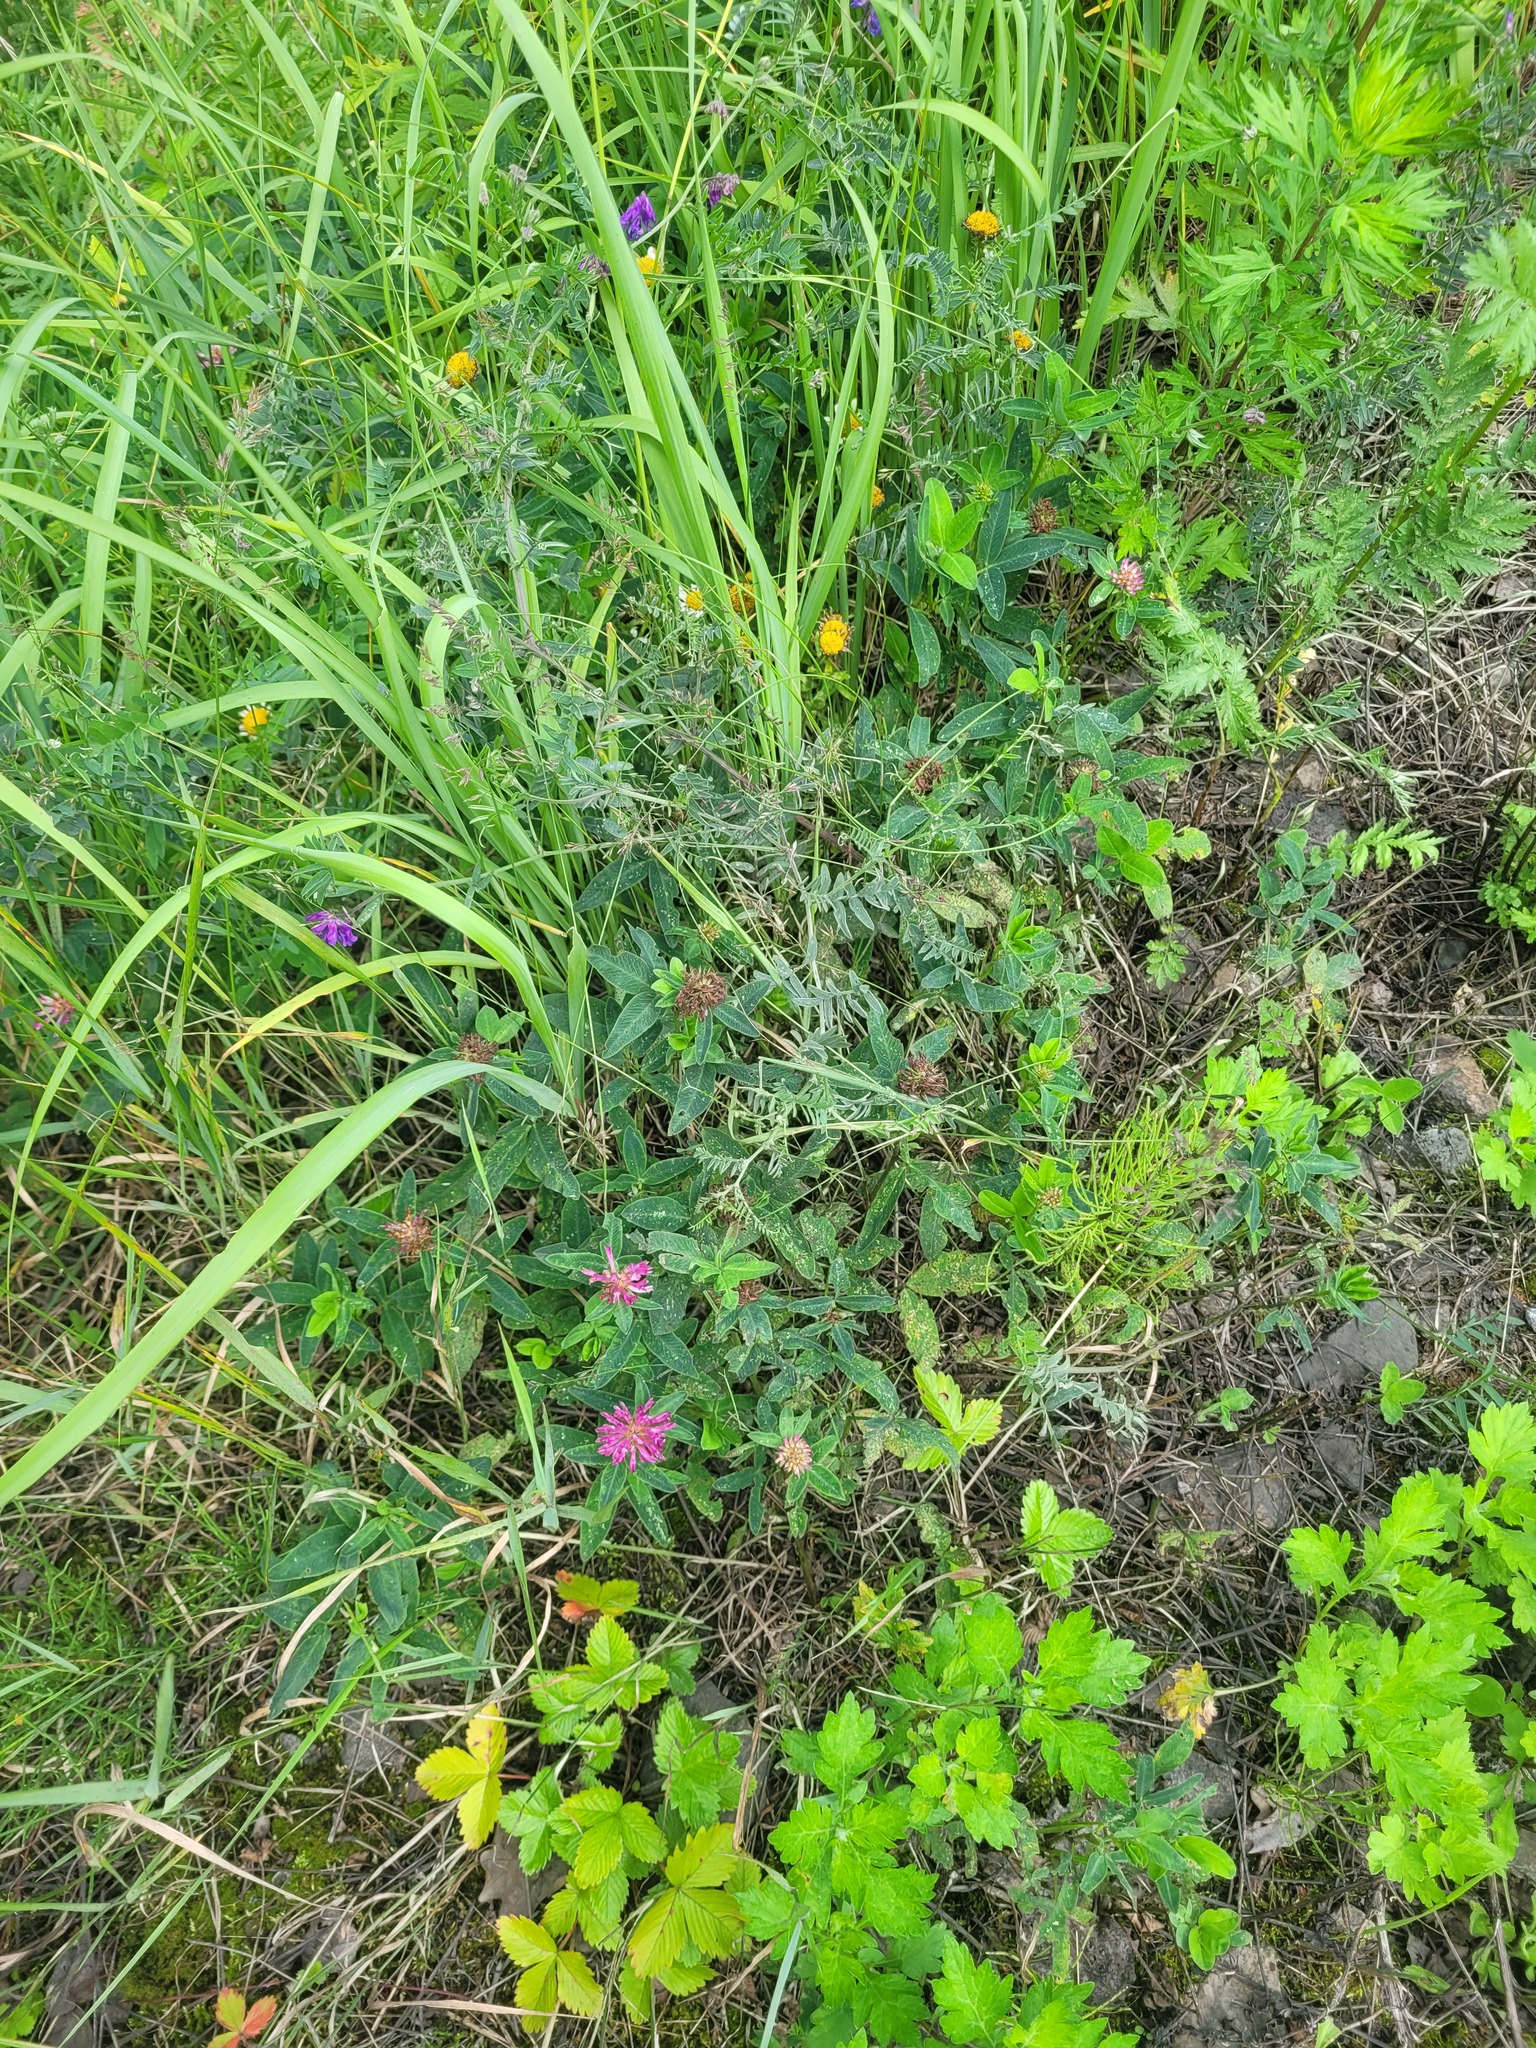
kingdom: Plantae
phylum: Tracheophyta
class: Magnoliopsida
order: Fabales
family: Fabaceae
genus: Trifolium
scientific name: Trifolium medium
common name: Zigzag clover
